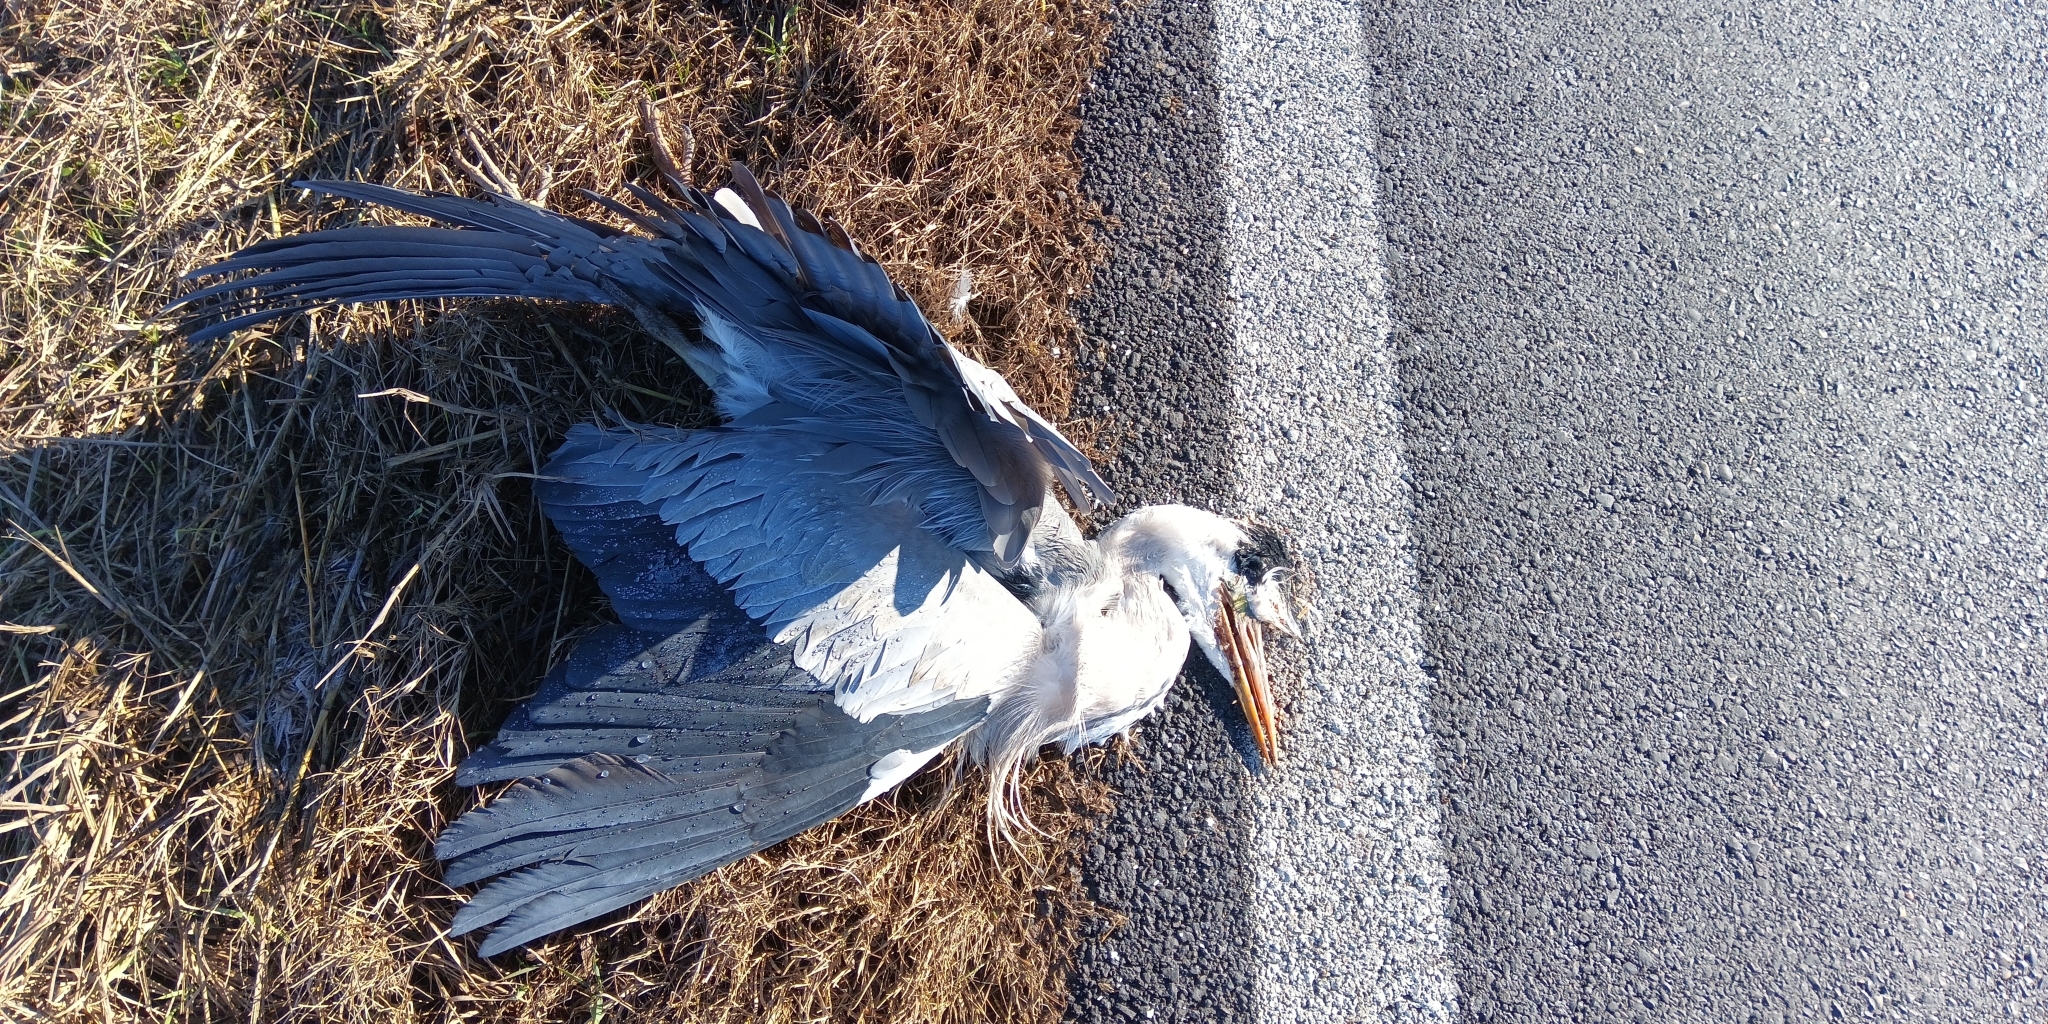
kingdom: Animalia
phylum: Chordata
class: Aves
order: Pelecaniformes
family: Ardeidae
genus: Ardea
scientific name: Ardea cinerea
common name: Grey heron
